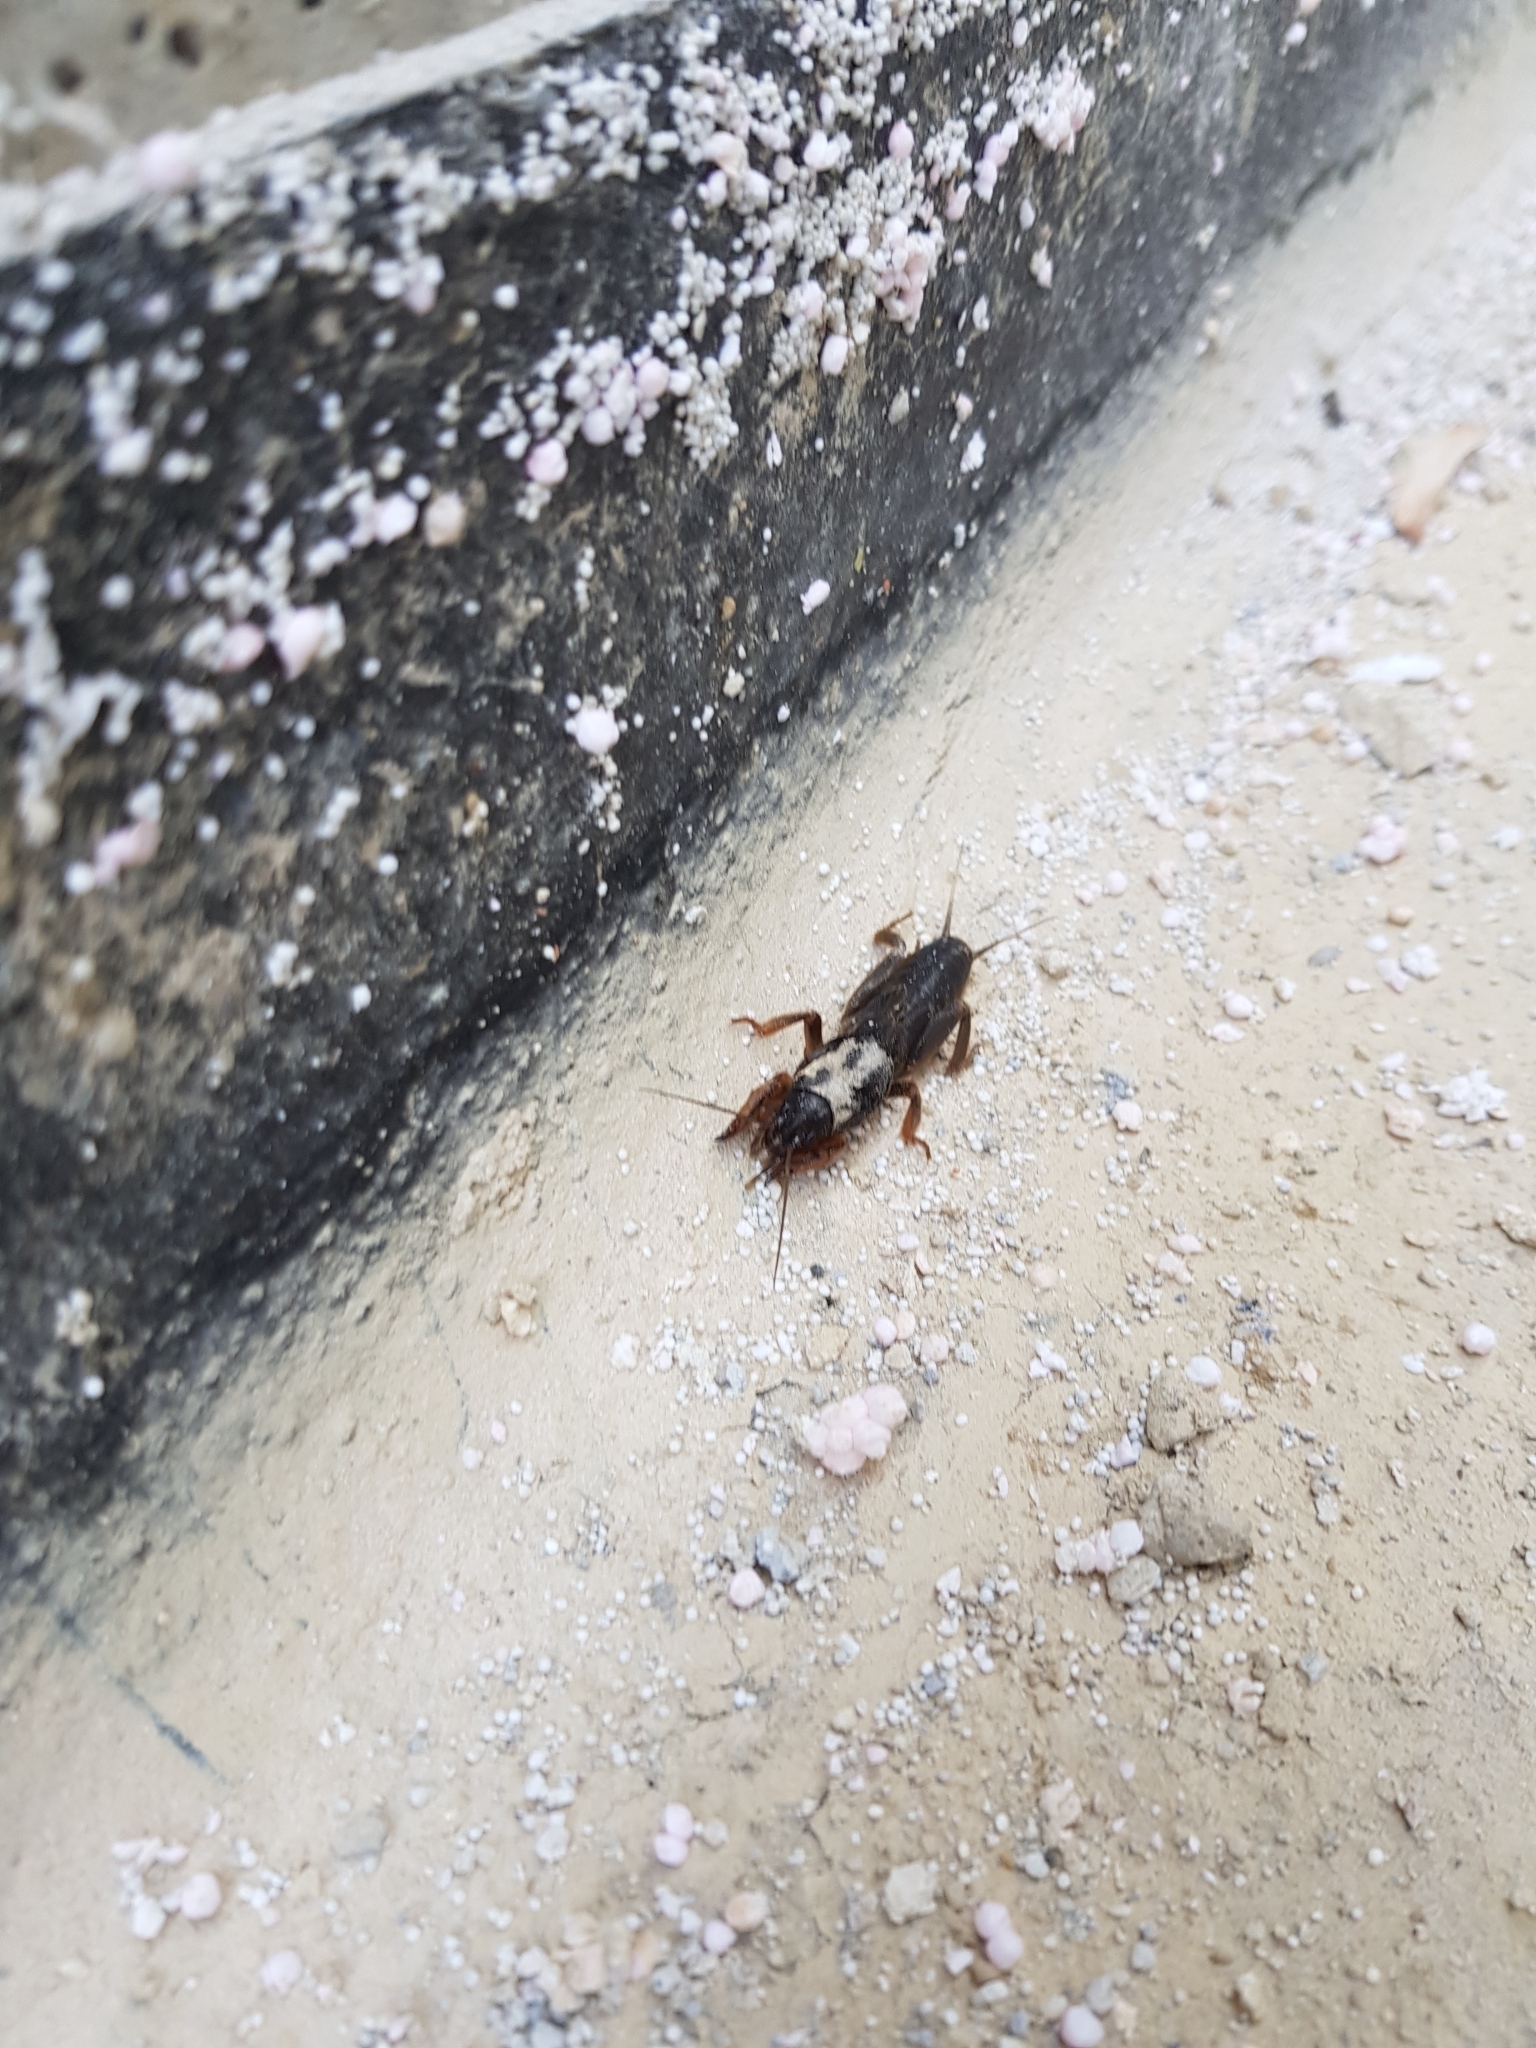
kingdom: Animalia
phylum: Arthropoda
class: Insecta
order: Orthoptera
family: Gryllotalpidae
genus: Gryllotalpa
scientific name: Gryllotalpa gryllotalpa
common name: European mole cricket
